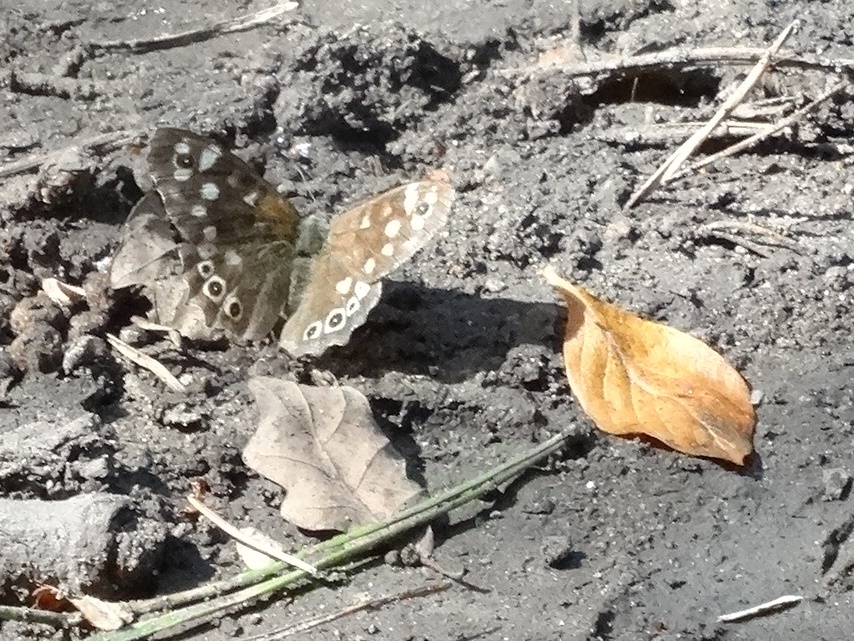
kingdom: Animalia
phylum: Arthropoda
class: Insecta
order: Lepidoptera
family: Nymphalidae
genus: Pararge
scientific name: Pararge aegeria
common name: Speckled wood
